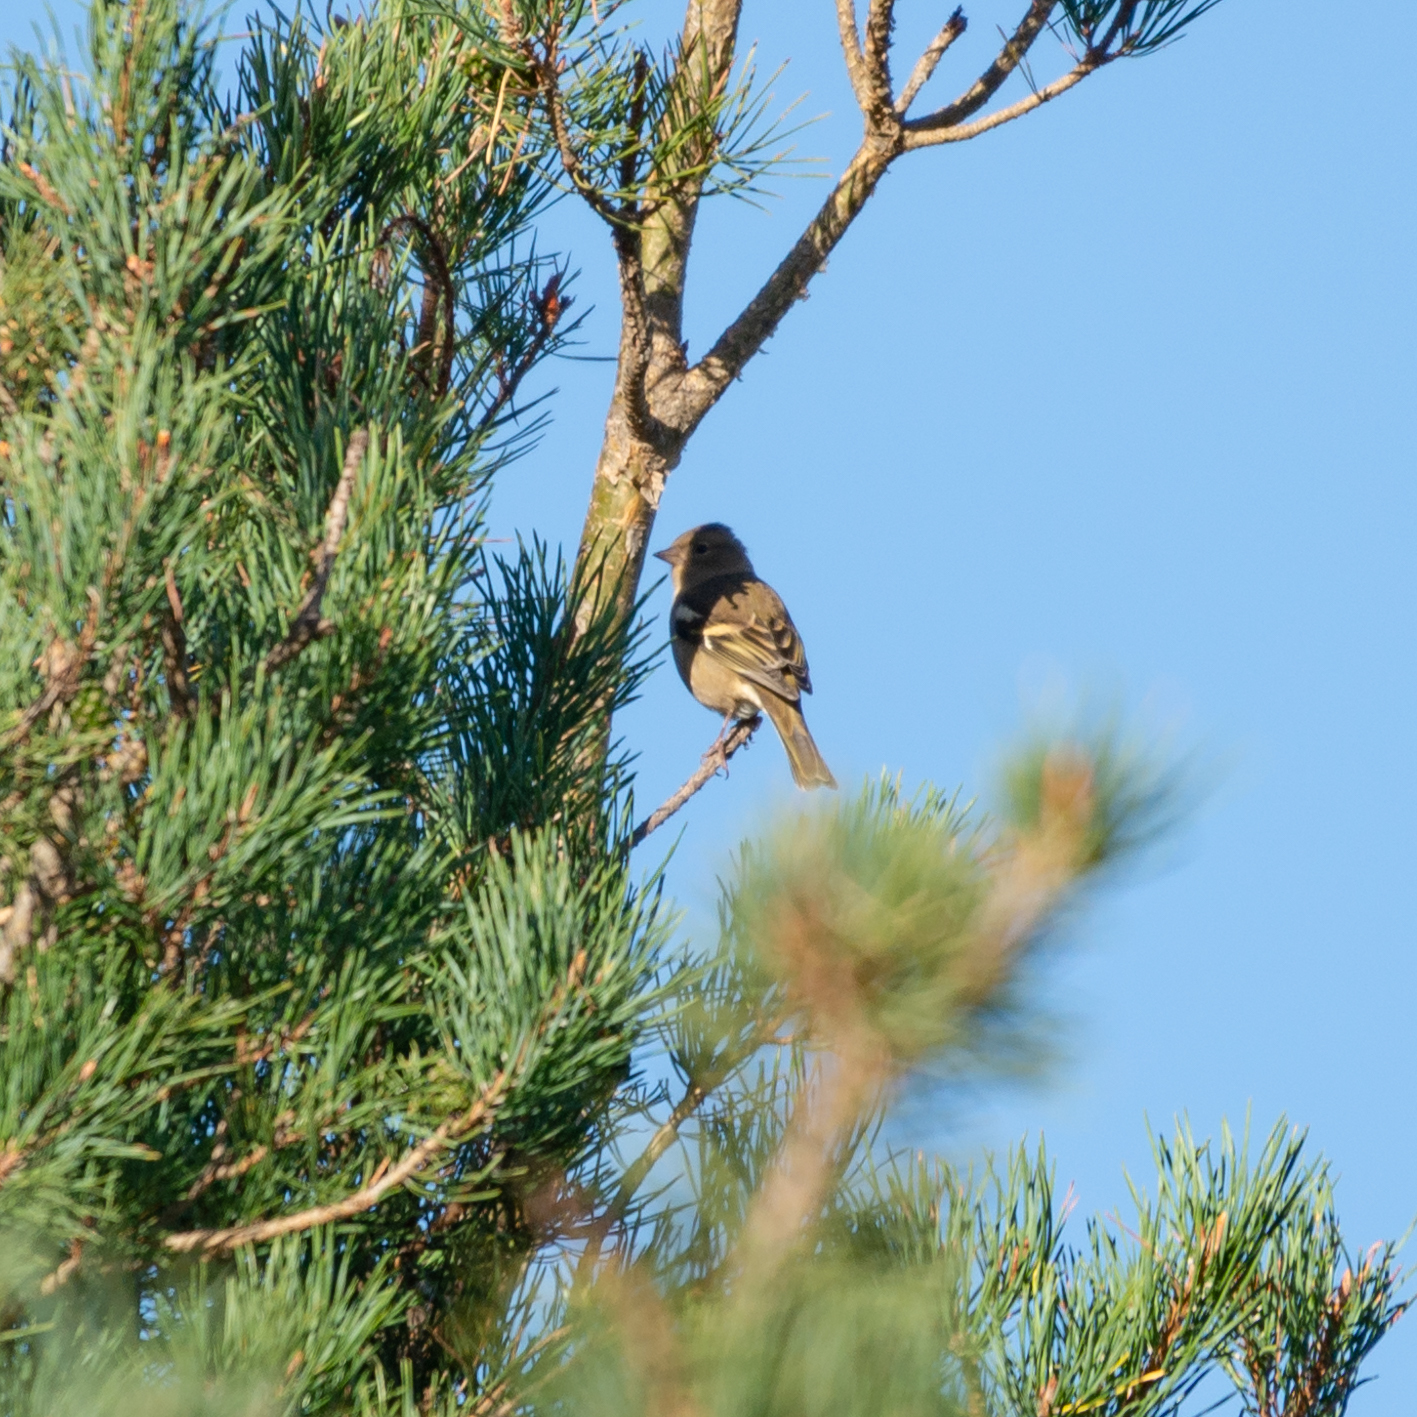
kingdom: Animalia
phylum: Chordata
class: Aves
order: Passeriformes
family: Fringillidae
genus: Fringilla
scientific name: Fringilla coelebs
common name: Common chaffinch
